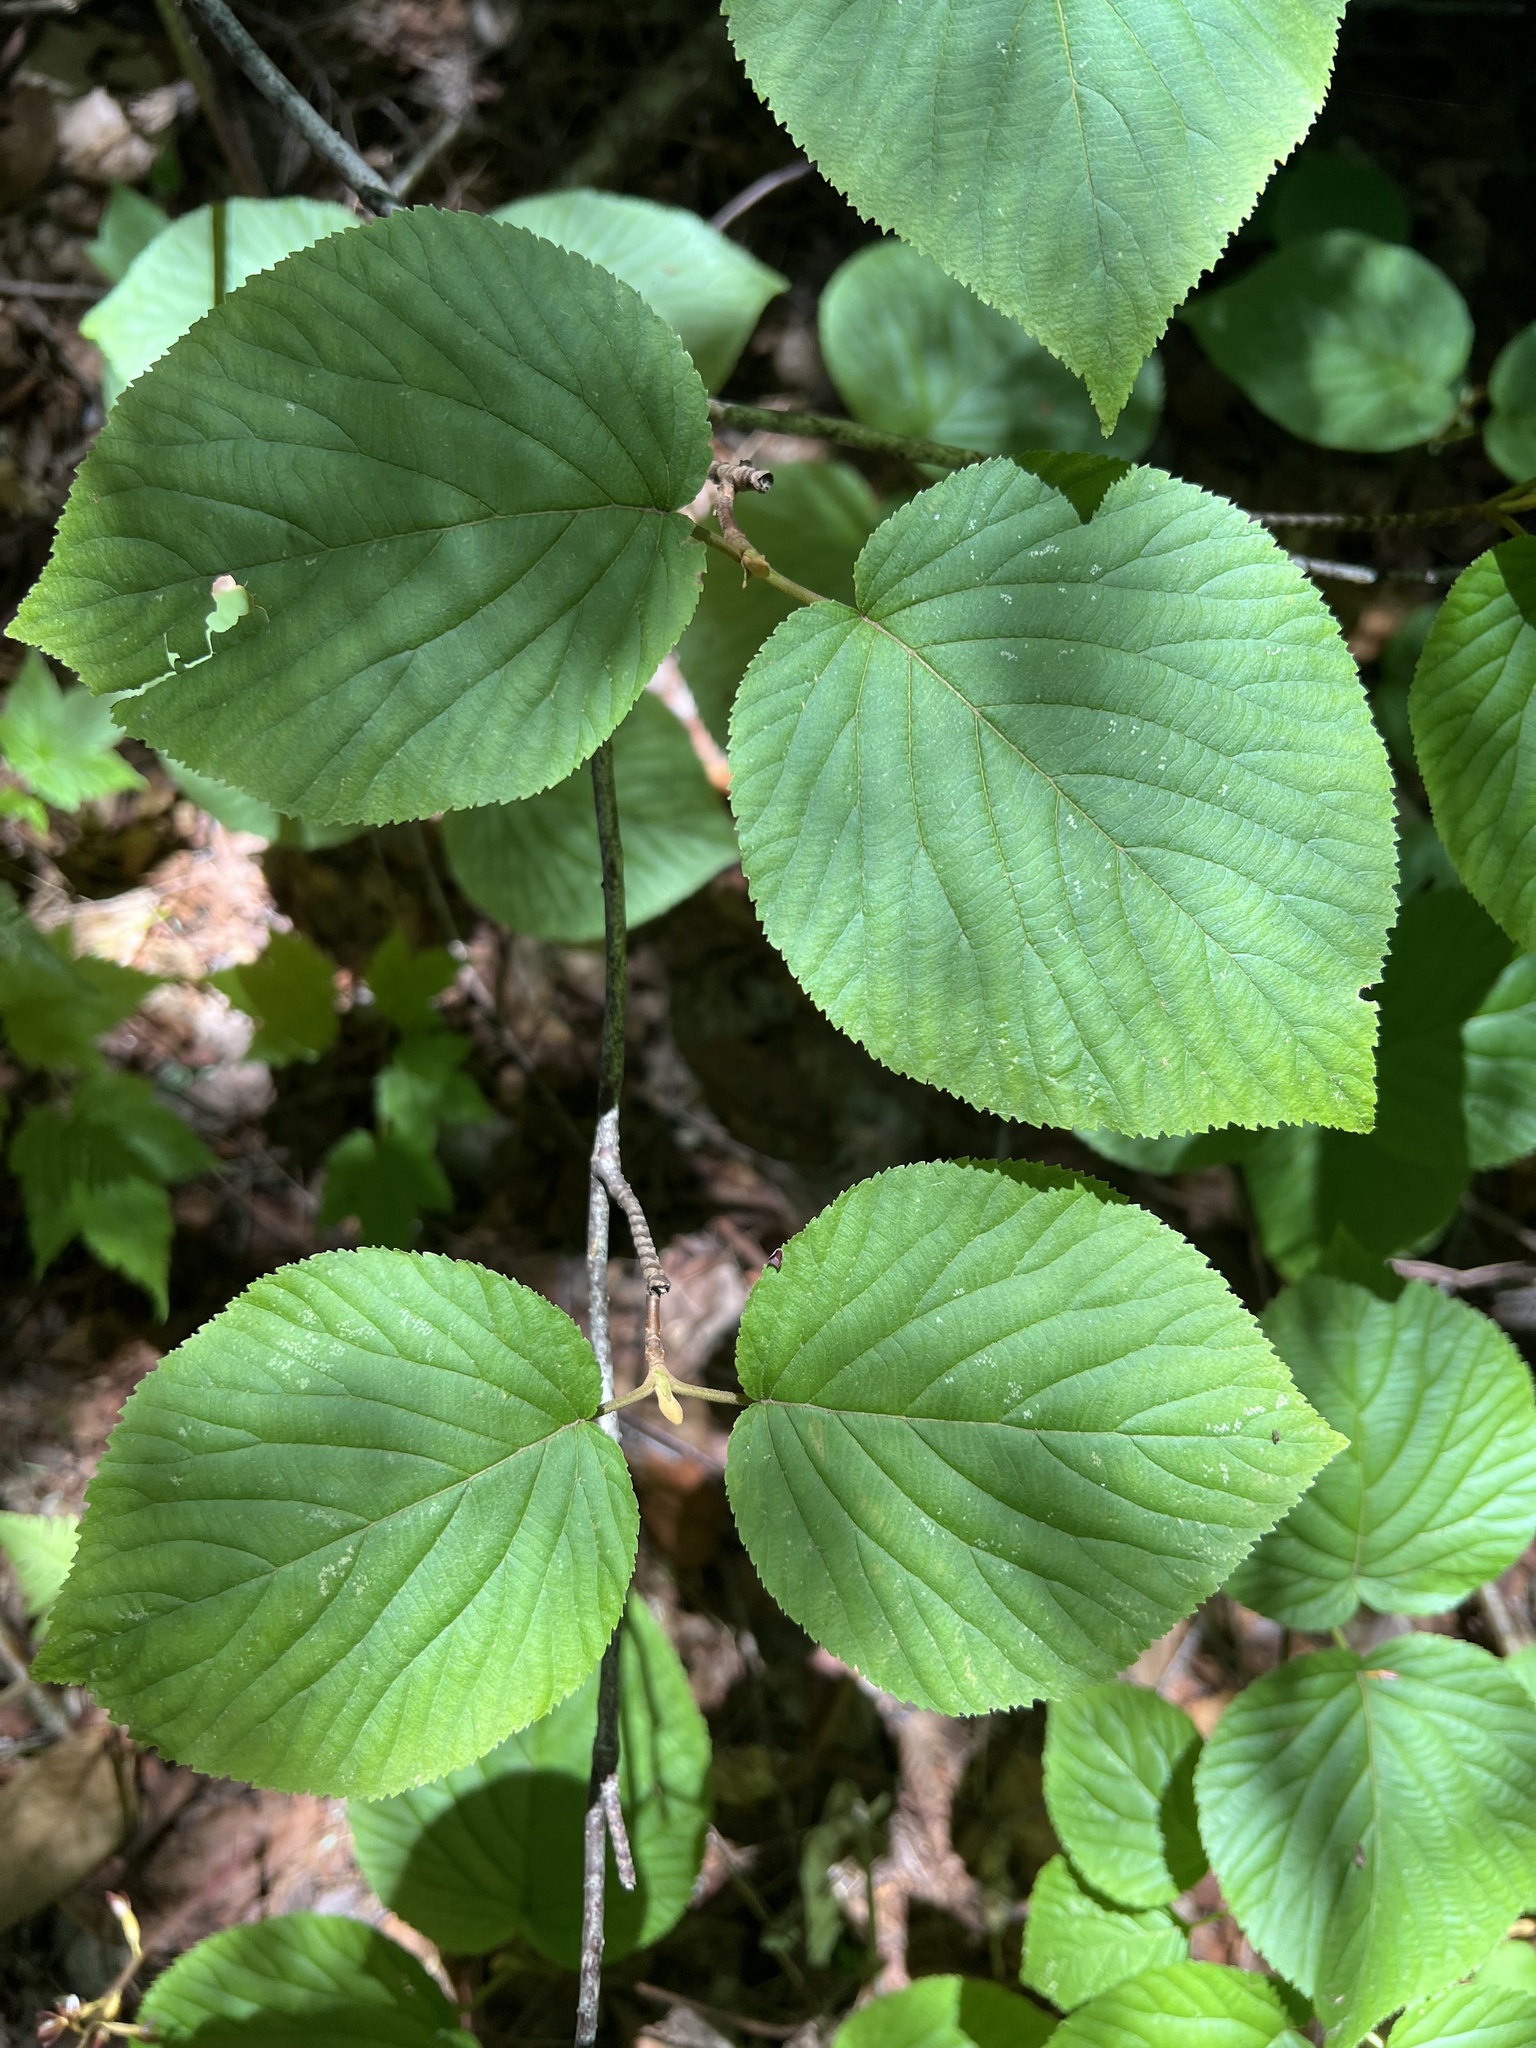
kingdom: Plantae
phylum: Tracheophyta
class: Magnoliopsida
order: Dipsacales
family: Viburnaceae
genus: Viburnum
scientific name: Viburnum lantanoides
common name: Hobblebush
